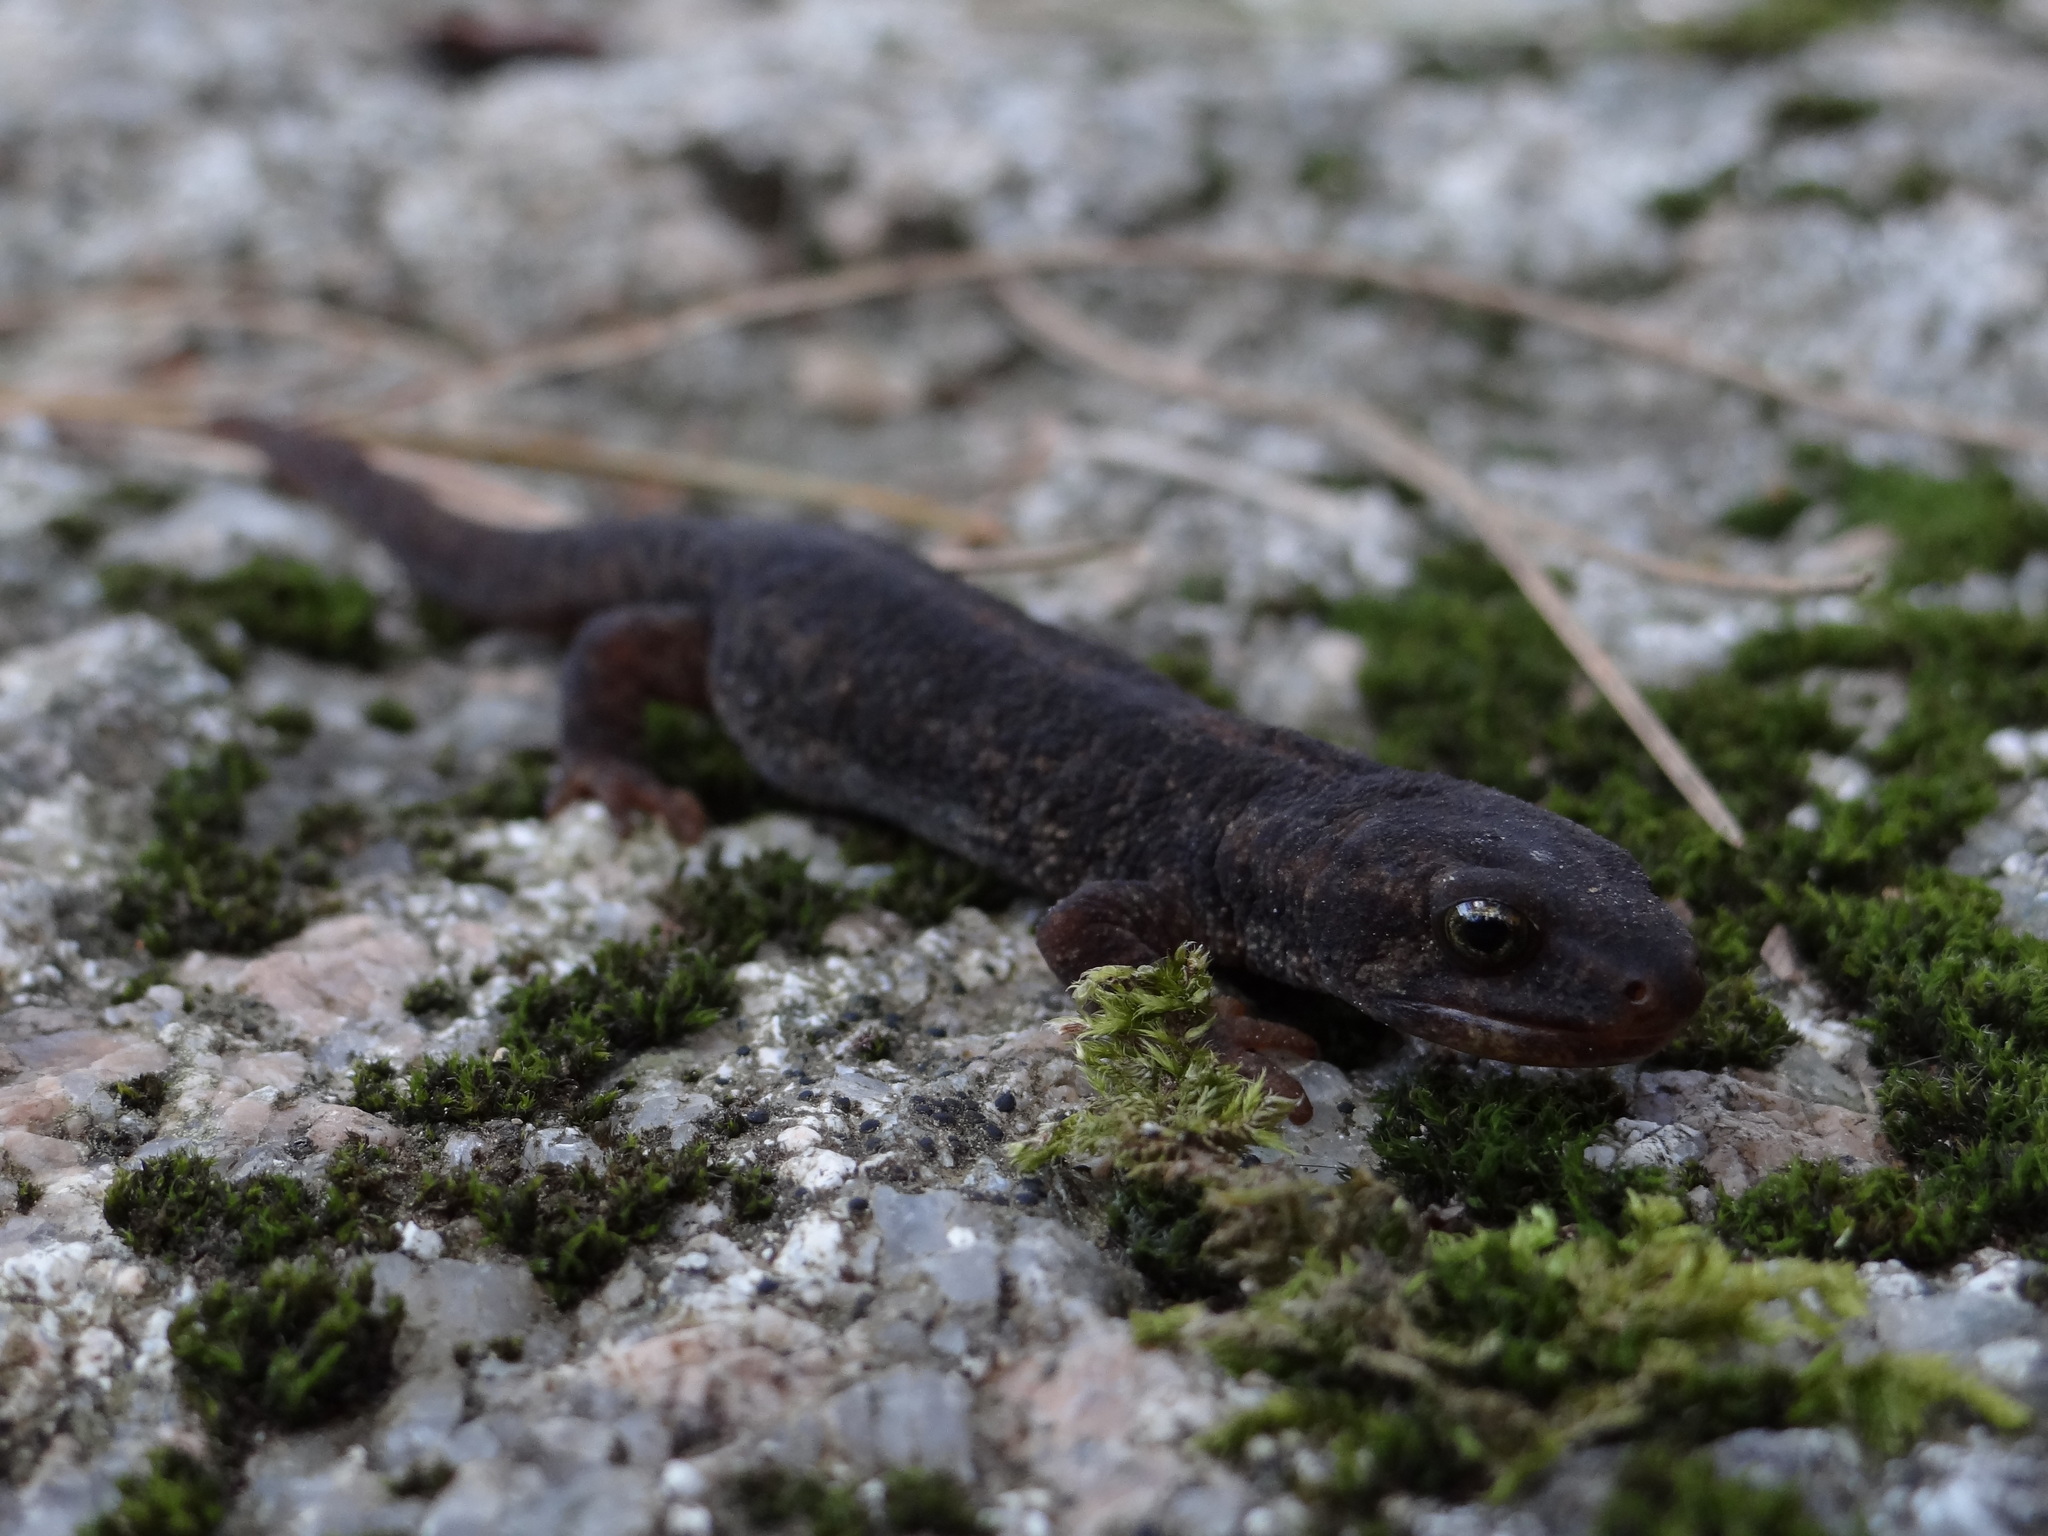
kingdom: Animalia
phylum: Chordata
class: Amphibia
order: Caudata
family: Salamandridae
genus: Euproctus
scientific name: Euproctus montanus
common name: Corsican brook salamander
